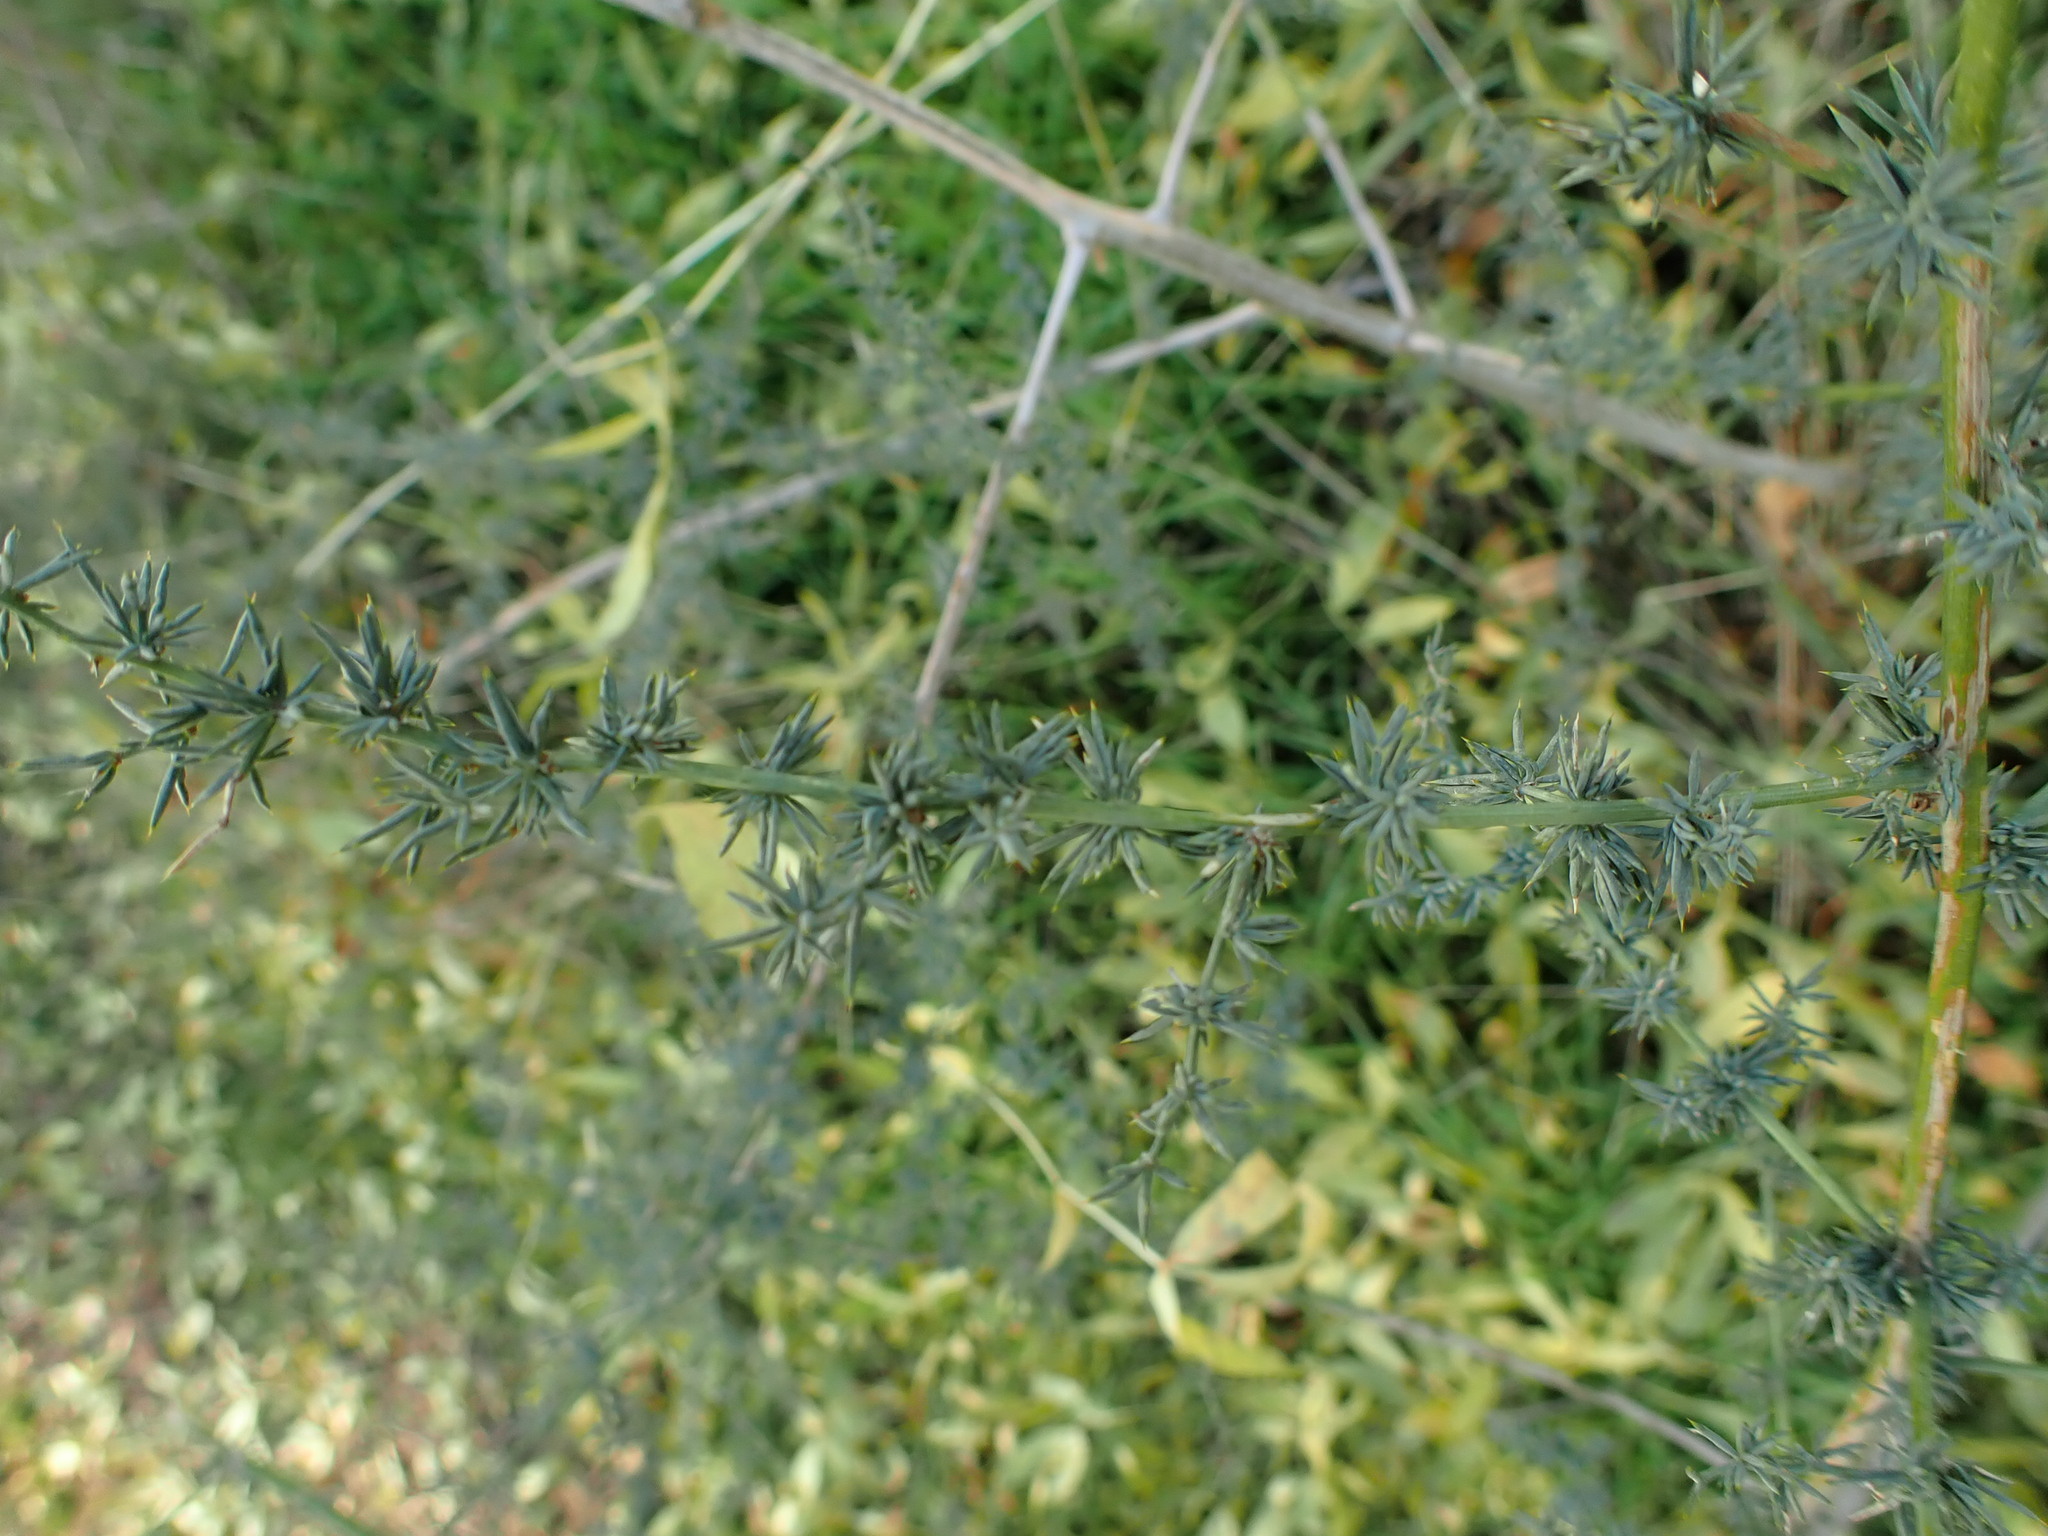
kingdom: Plantae
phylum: Tracheophyta
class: Liliopsida
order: Asparagales
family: Asparagaceae
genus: Asparagus
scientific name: Asparagus acutifolius
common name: Wild asparagus
